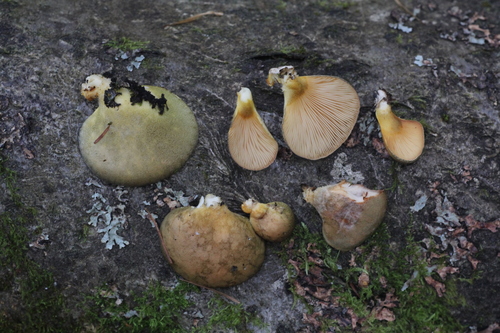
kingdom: Fungi
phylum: Basidiomycota
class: Agaricomycetes
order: Agaricales
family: Sarcomyxaceae
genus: Sarcomyxa
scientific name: Sarcomyxa serotina
